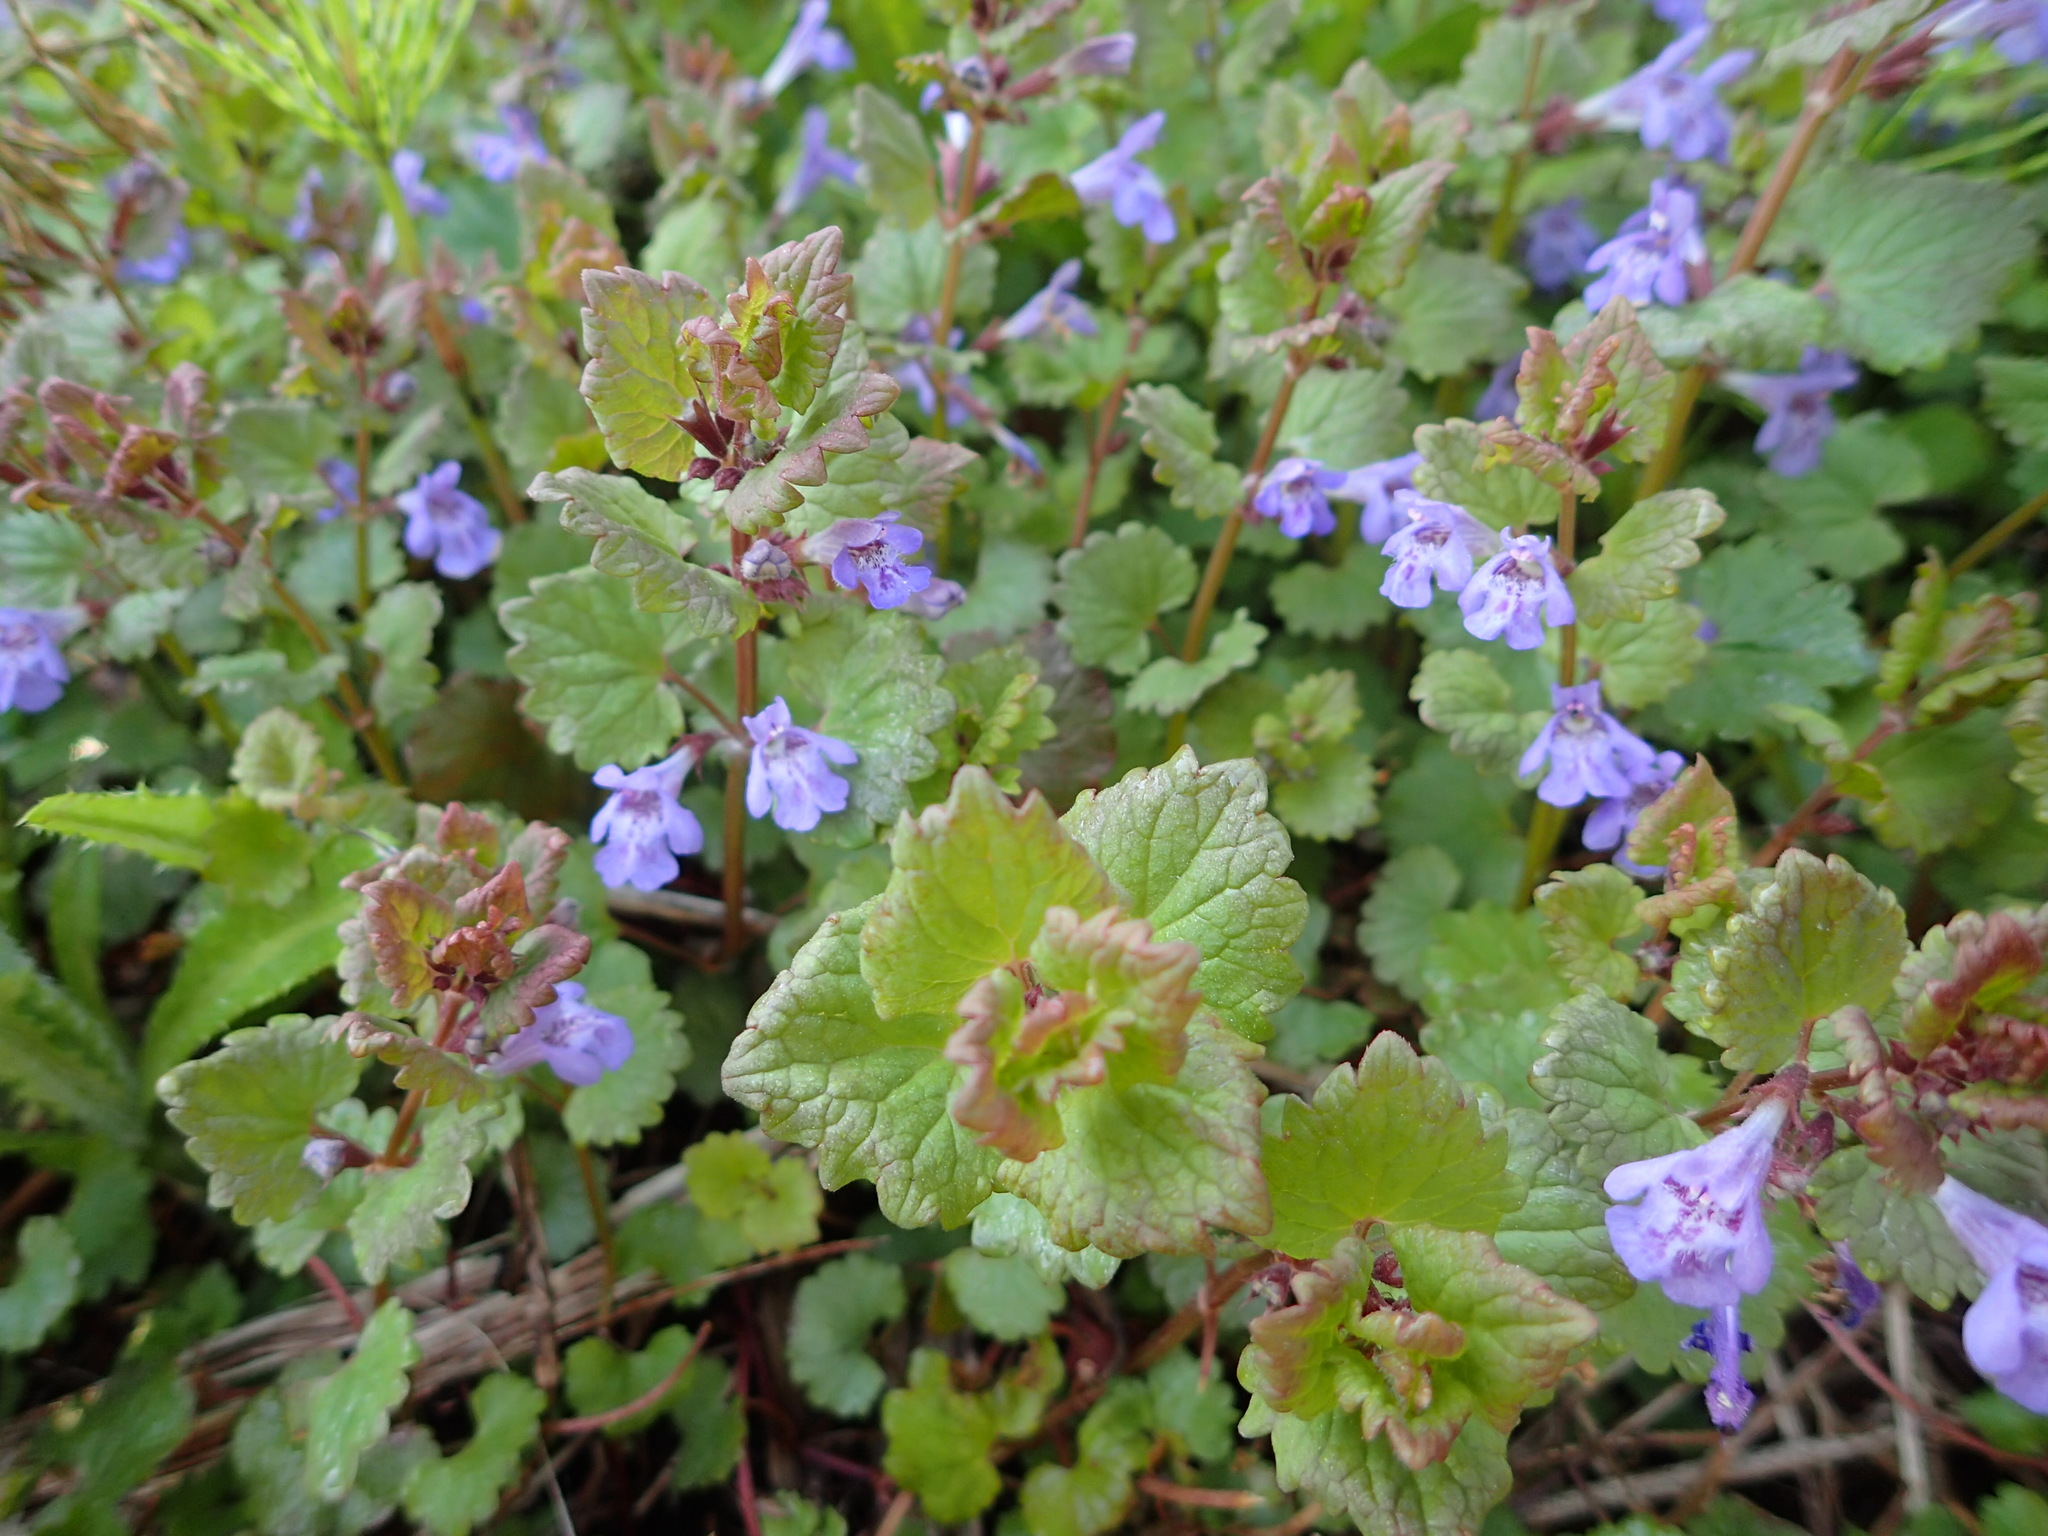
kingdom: Plantae
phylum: Tracheophyta
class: Magnoliopsida
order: Lamiales
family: Lamiaceae
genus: Glechoma
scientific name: Glechoma hederacea
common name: Ground ivy
